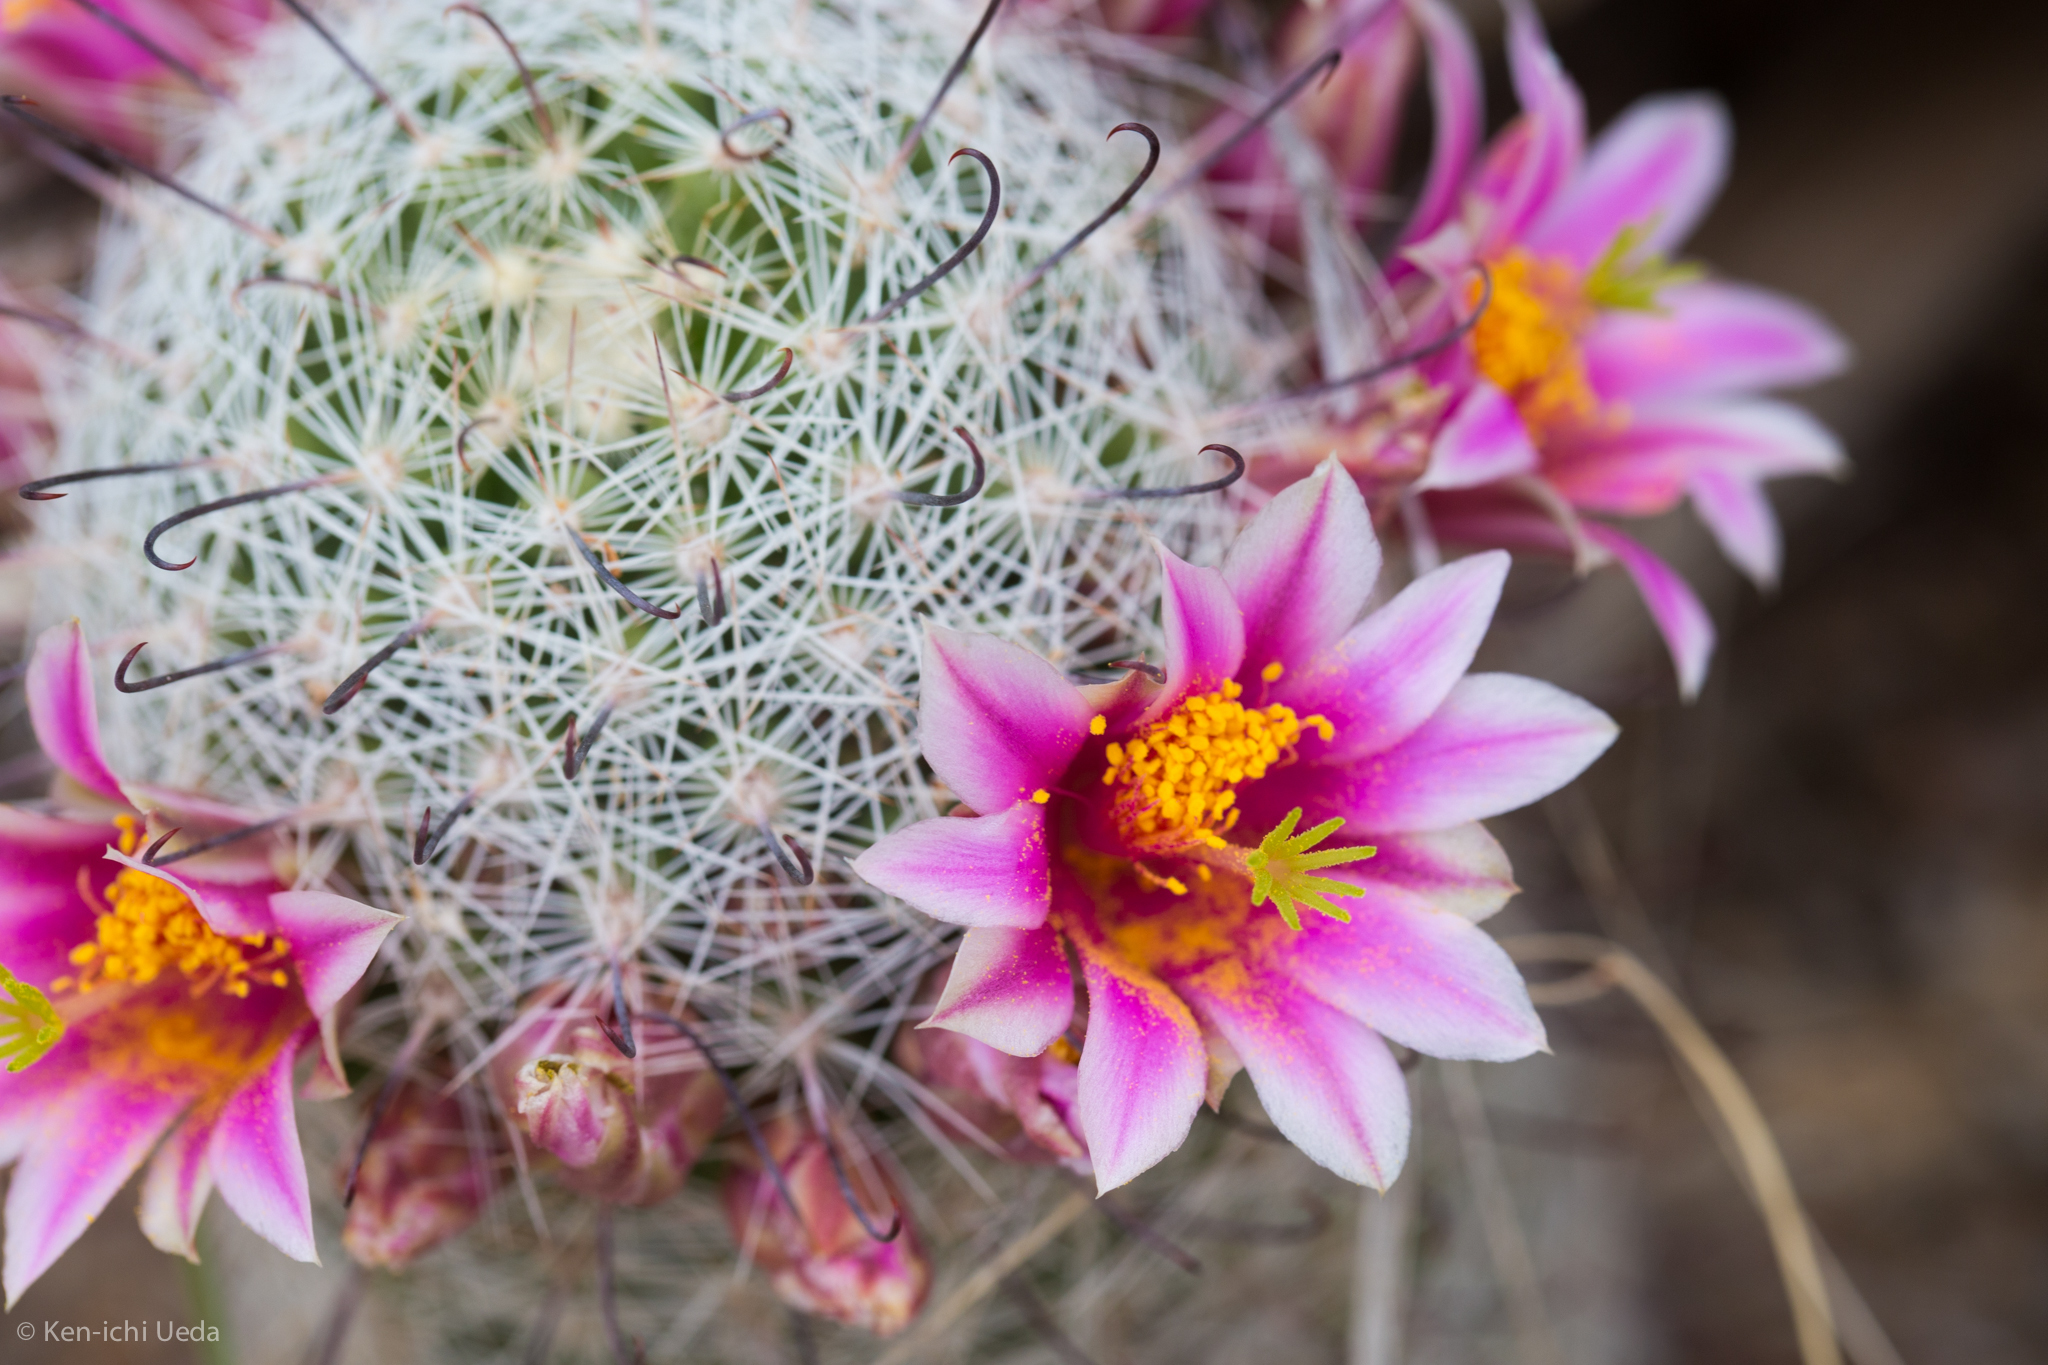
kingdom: Plantae
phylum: Tracheophyta
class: Magnoliopsida
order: Caryophyllales
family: Cactaceae
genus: Cochemiea
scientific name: Cochemiea grahamii
